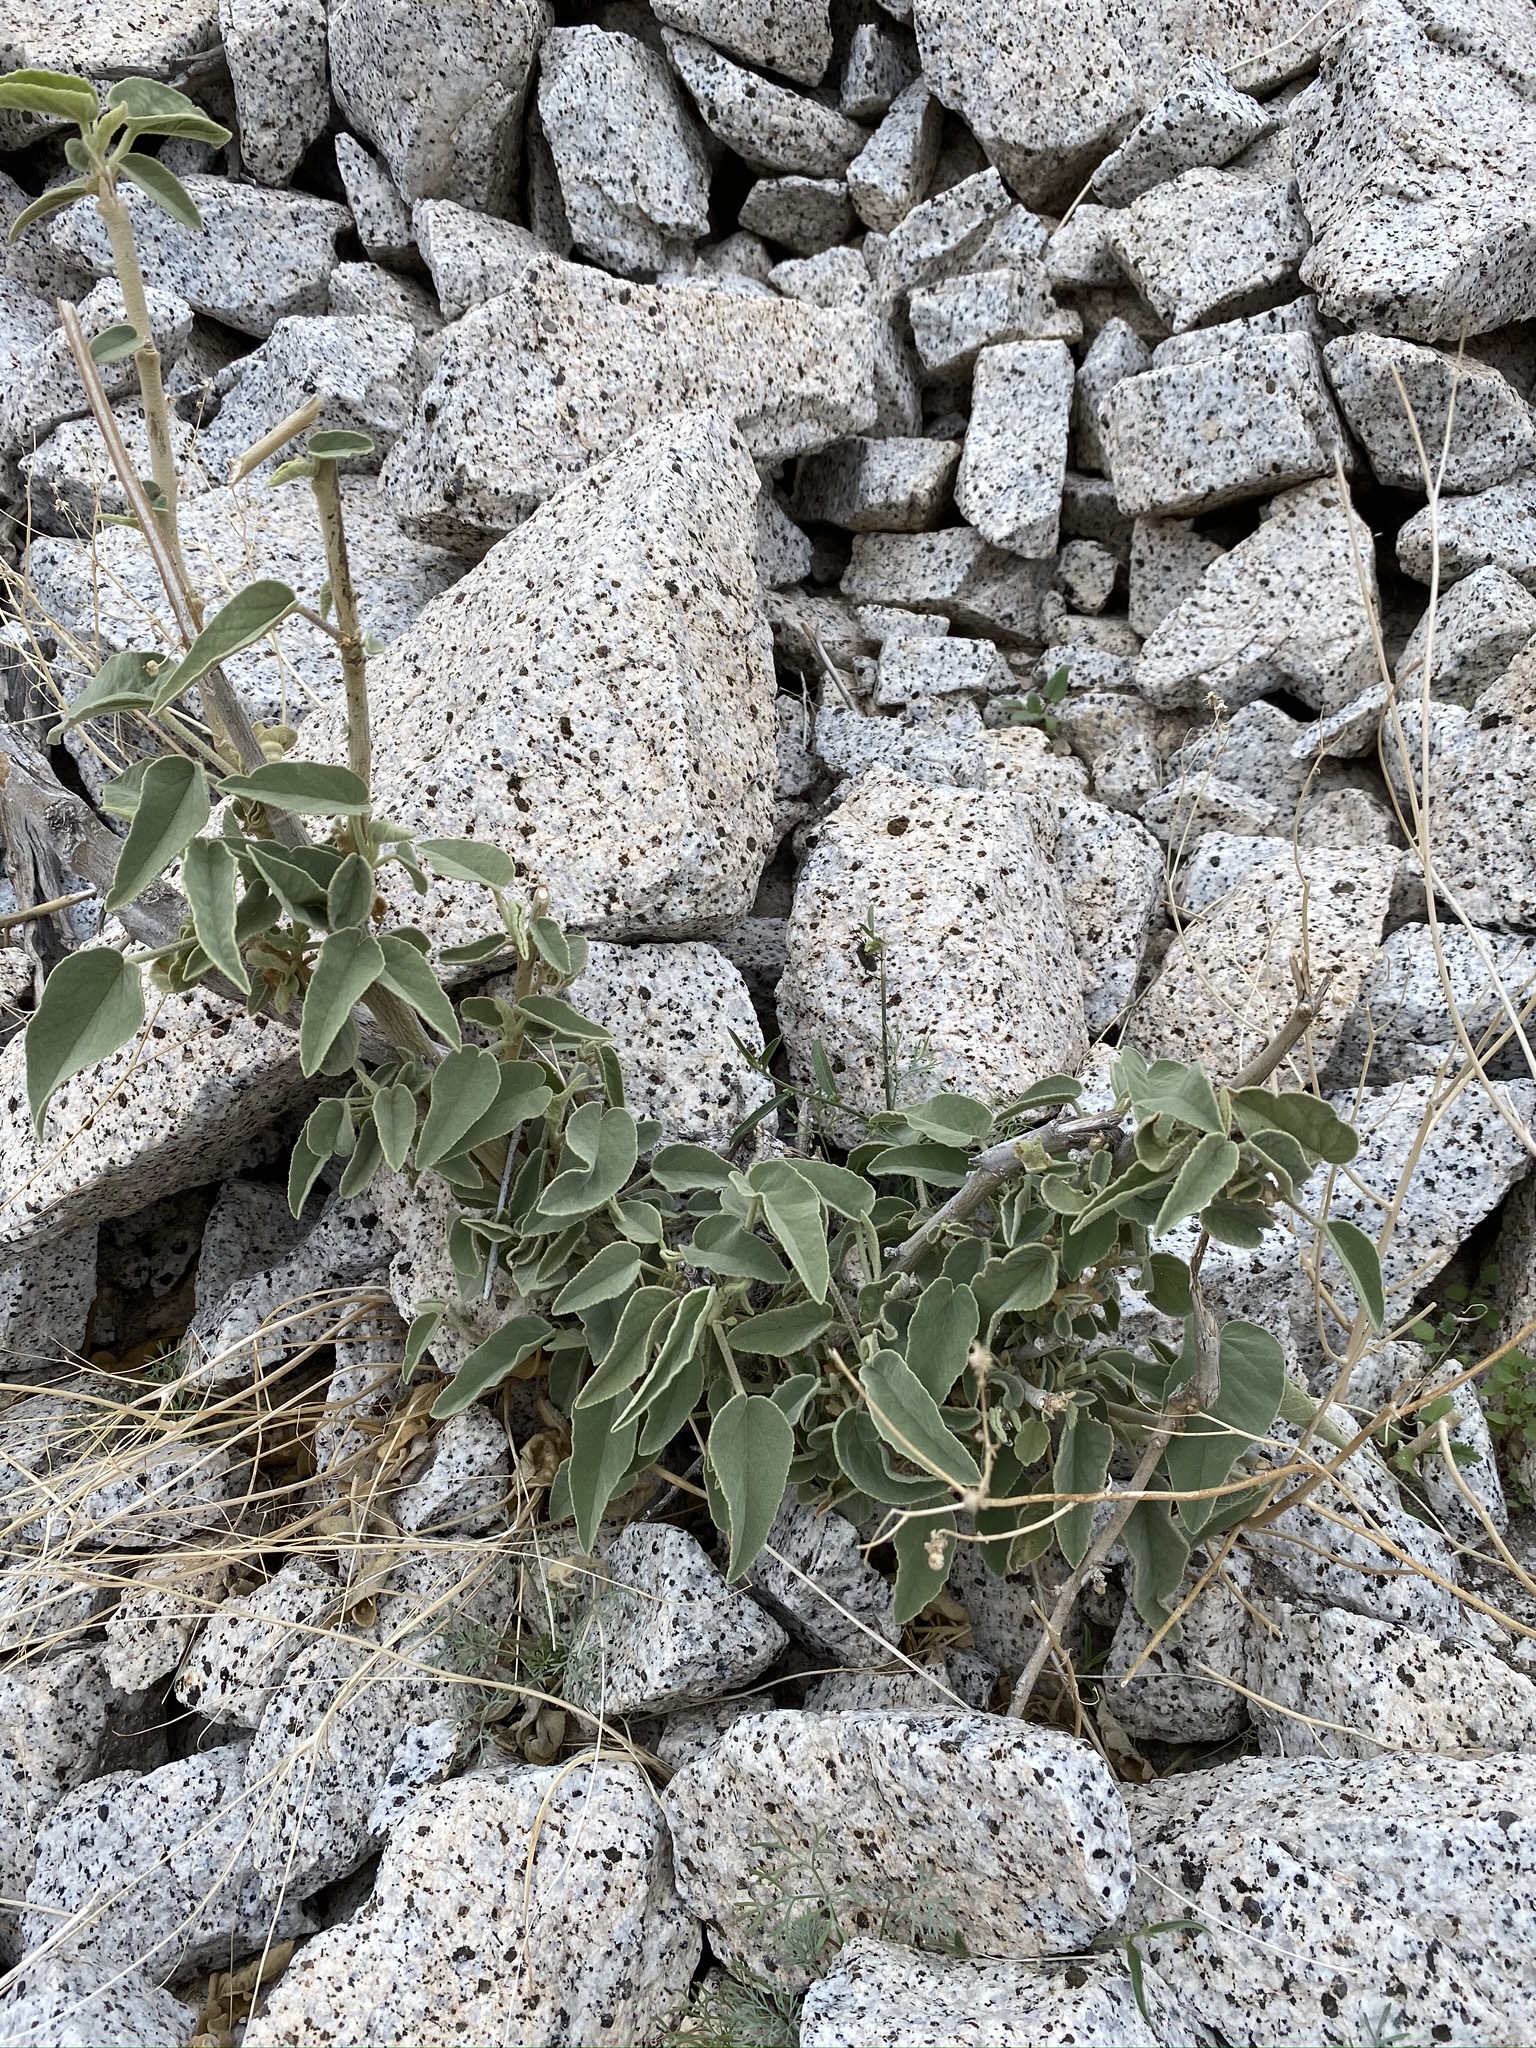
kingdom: Plantae
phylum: Tracheophyta
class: Magnoliopsida
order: Malvales
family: Malvaceae
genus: Horsfordia
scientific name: Horsfordia newberryi
